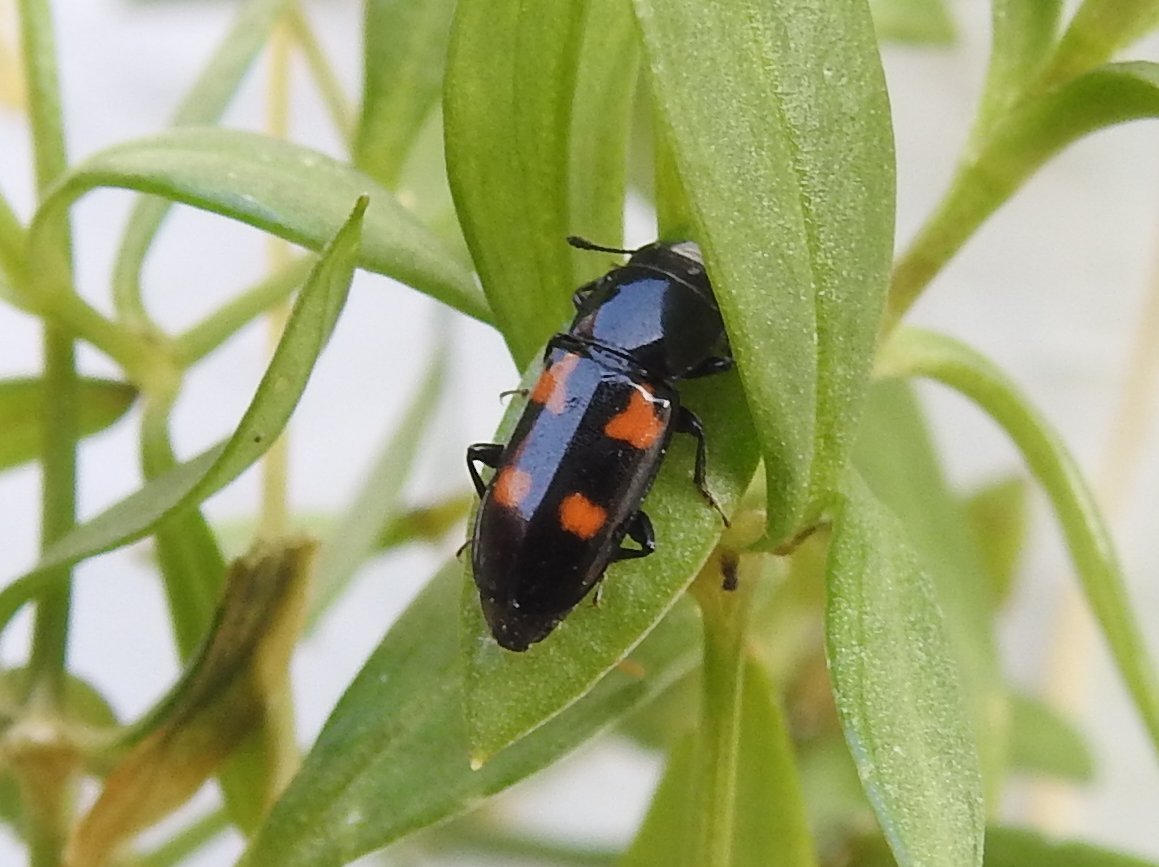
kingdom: Animalia
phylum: Arthropoda
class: Insecta
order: Coleoptera
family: Nitidulidae
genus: Glischrochilus
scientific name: Glischrochilus quadripunctatus
